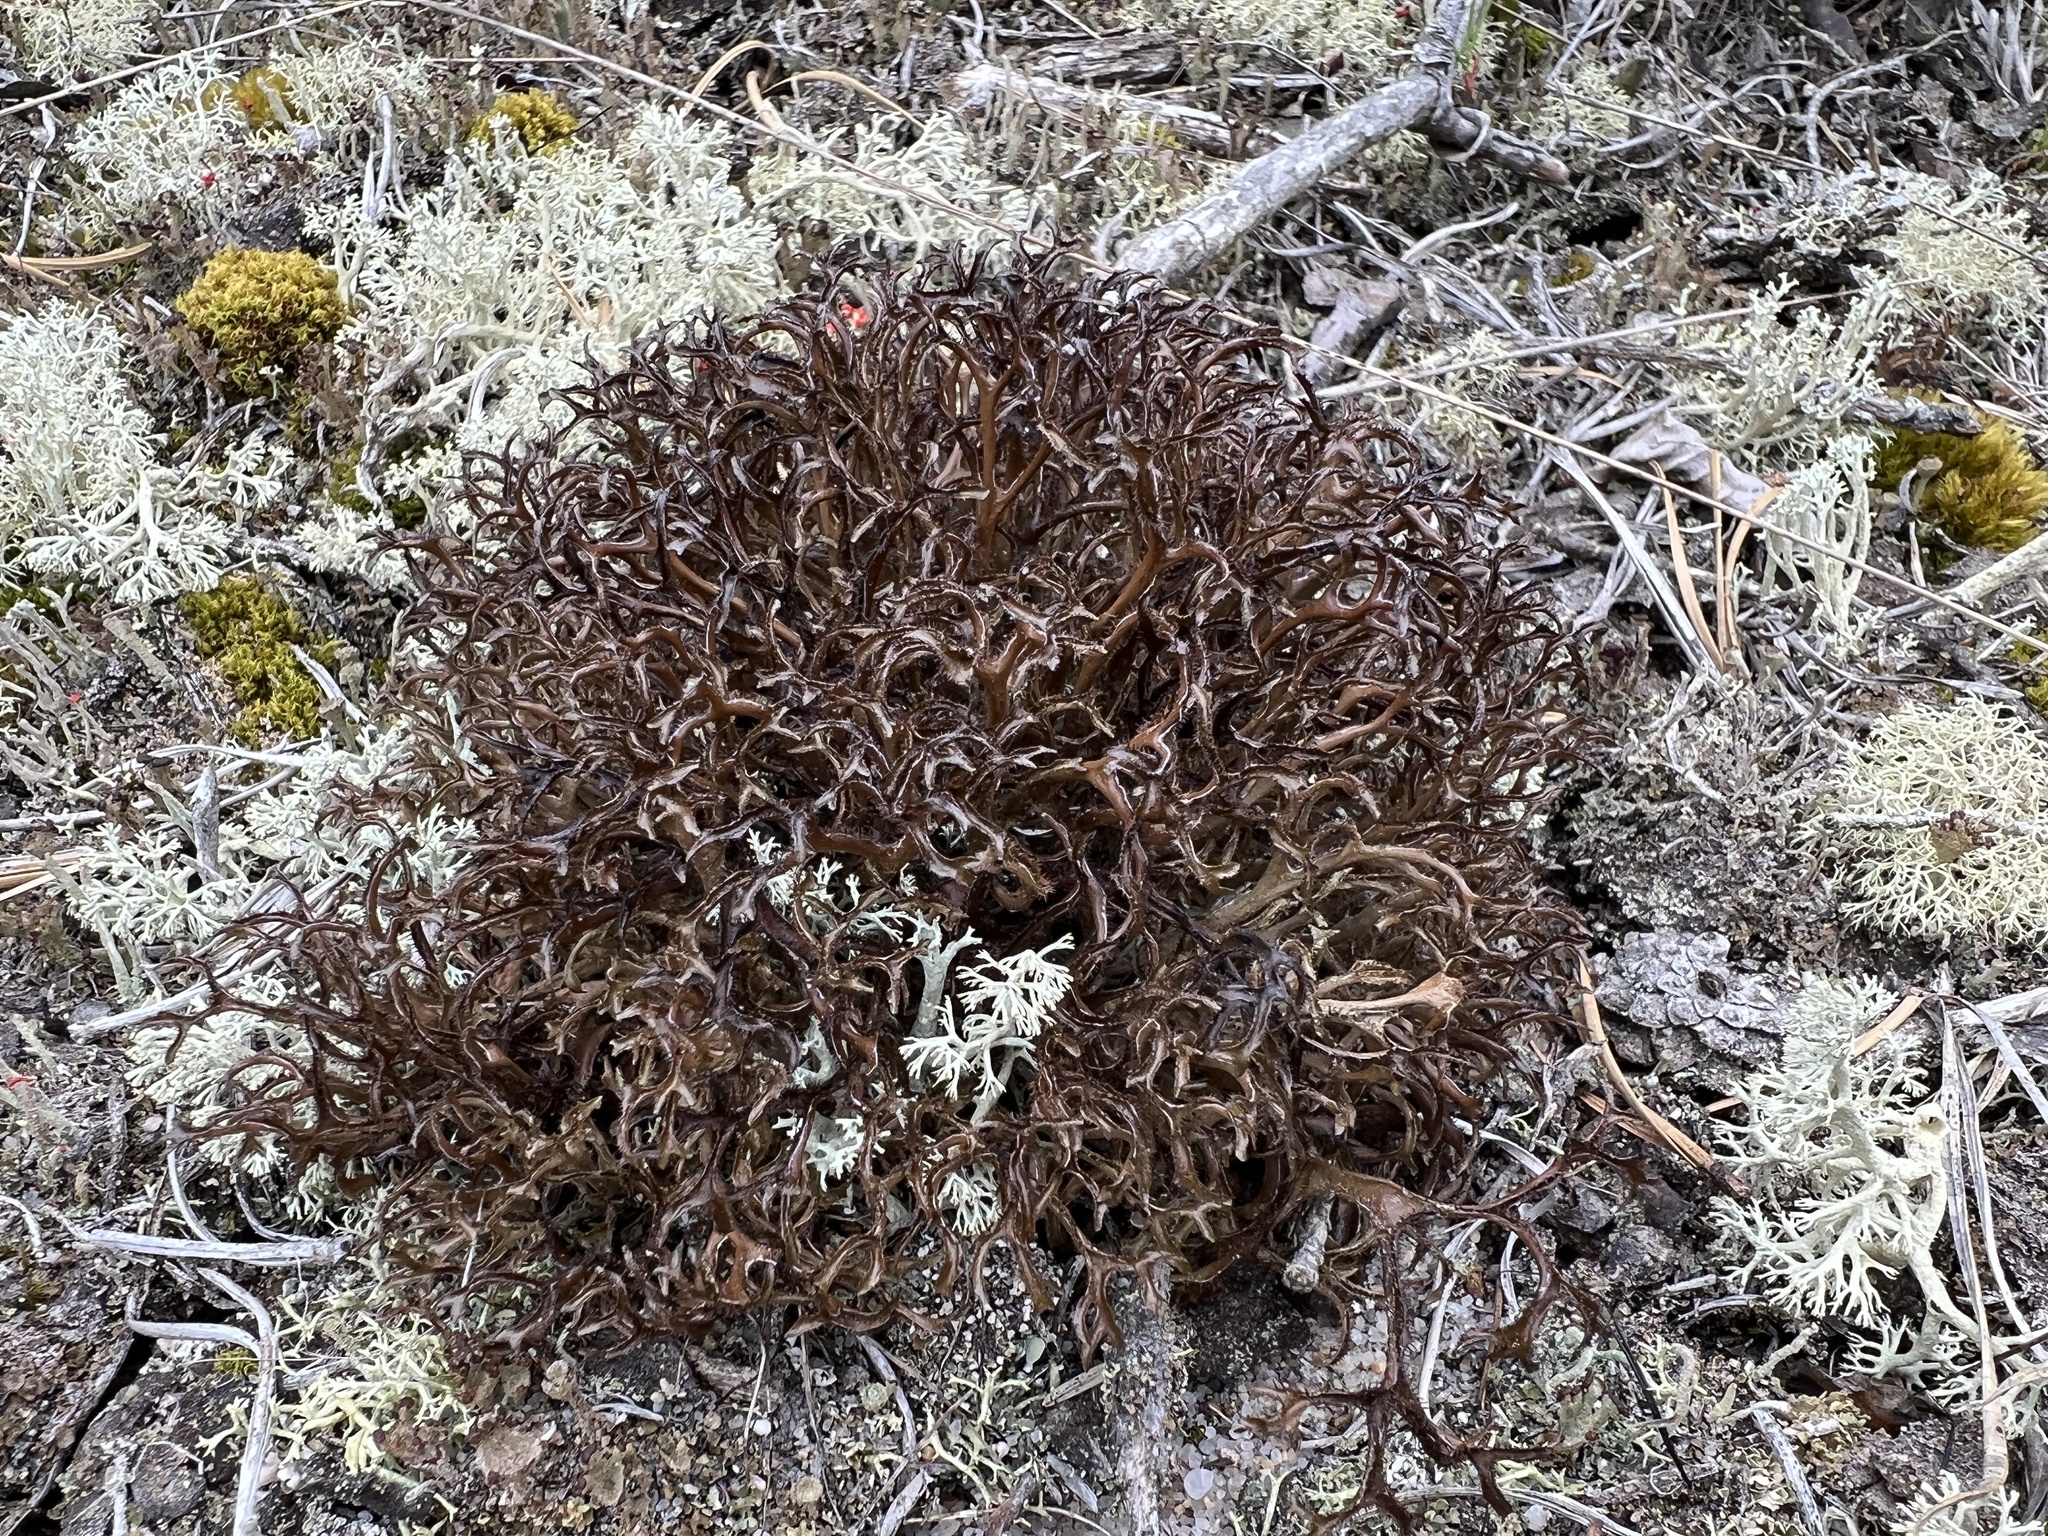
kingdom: Fungi
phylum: Ascomycota
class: Lecanoromycetes
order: Lecanorales
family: Parmeliaceae
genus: Cetraria
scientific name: Cetraria arenaria
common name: Sand-loving iceland lichen
